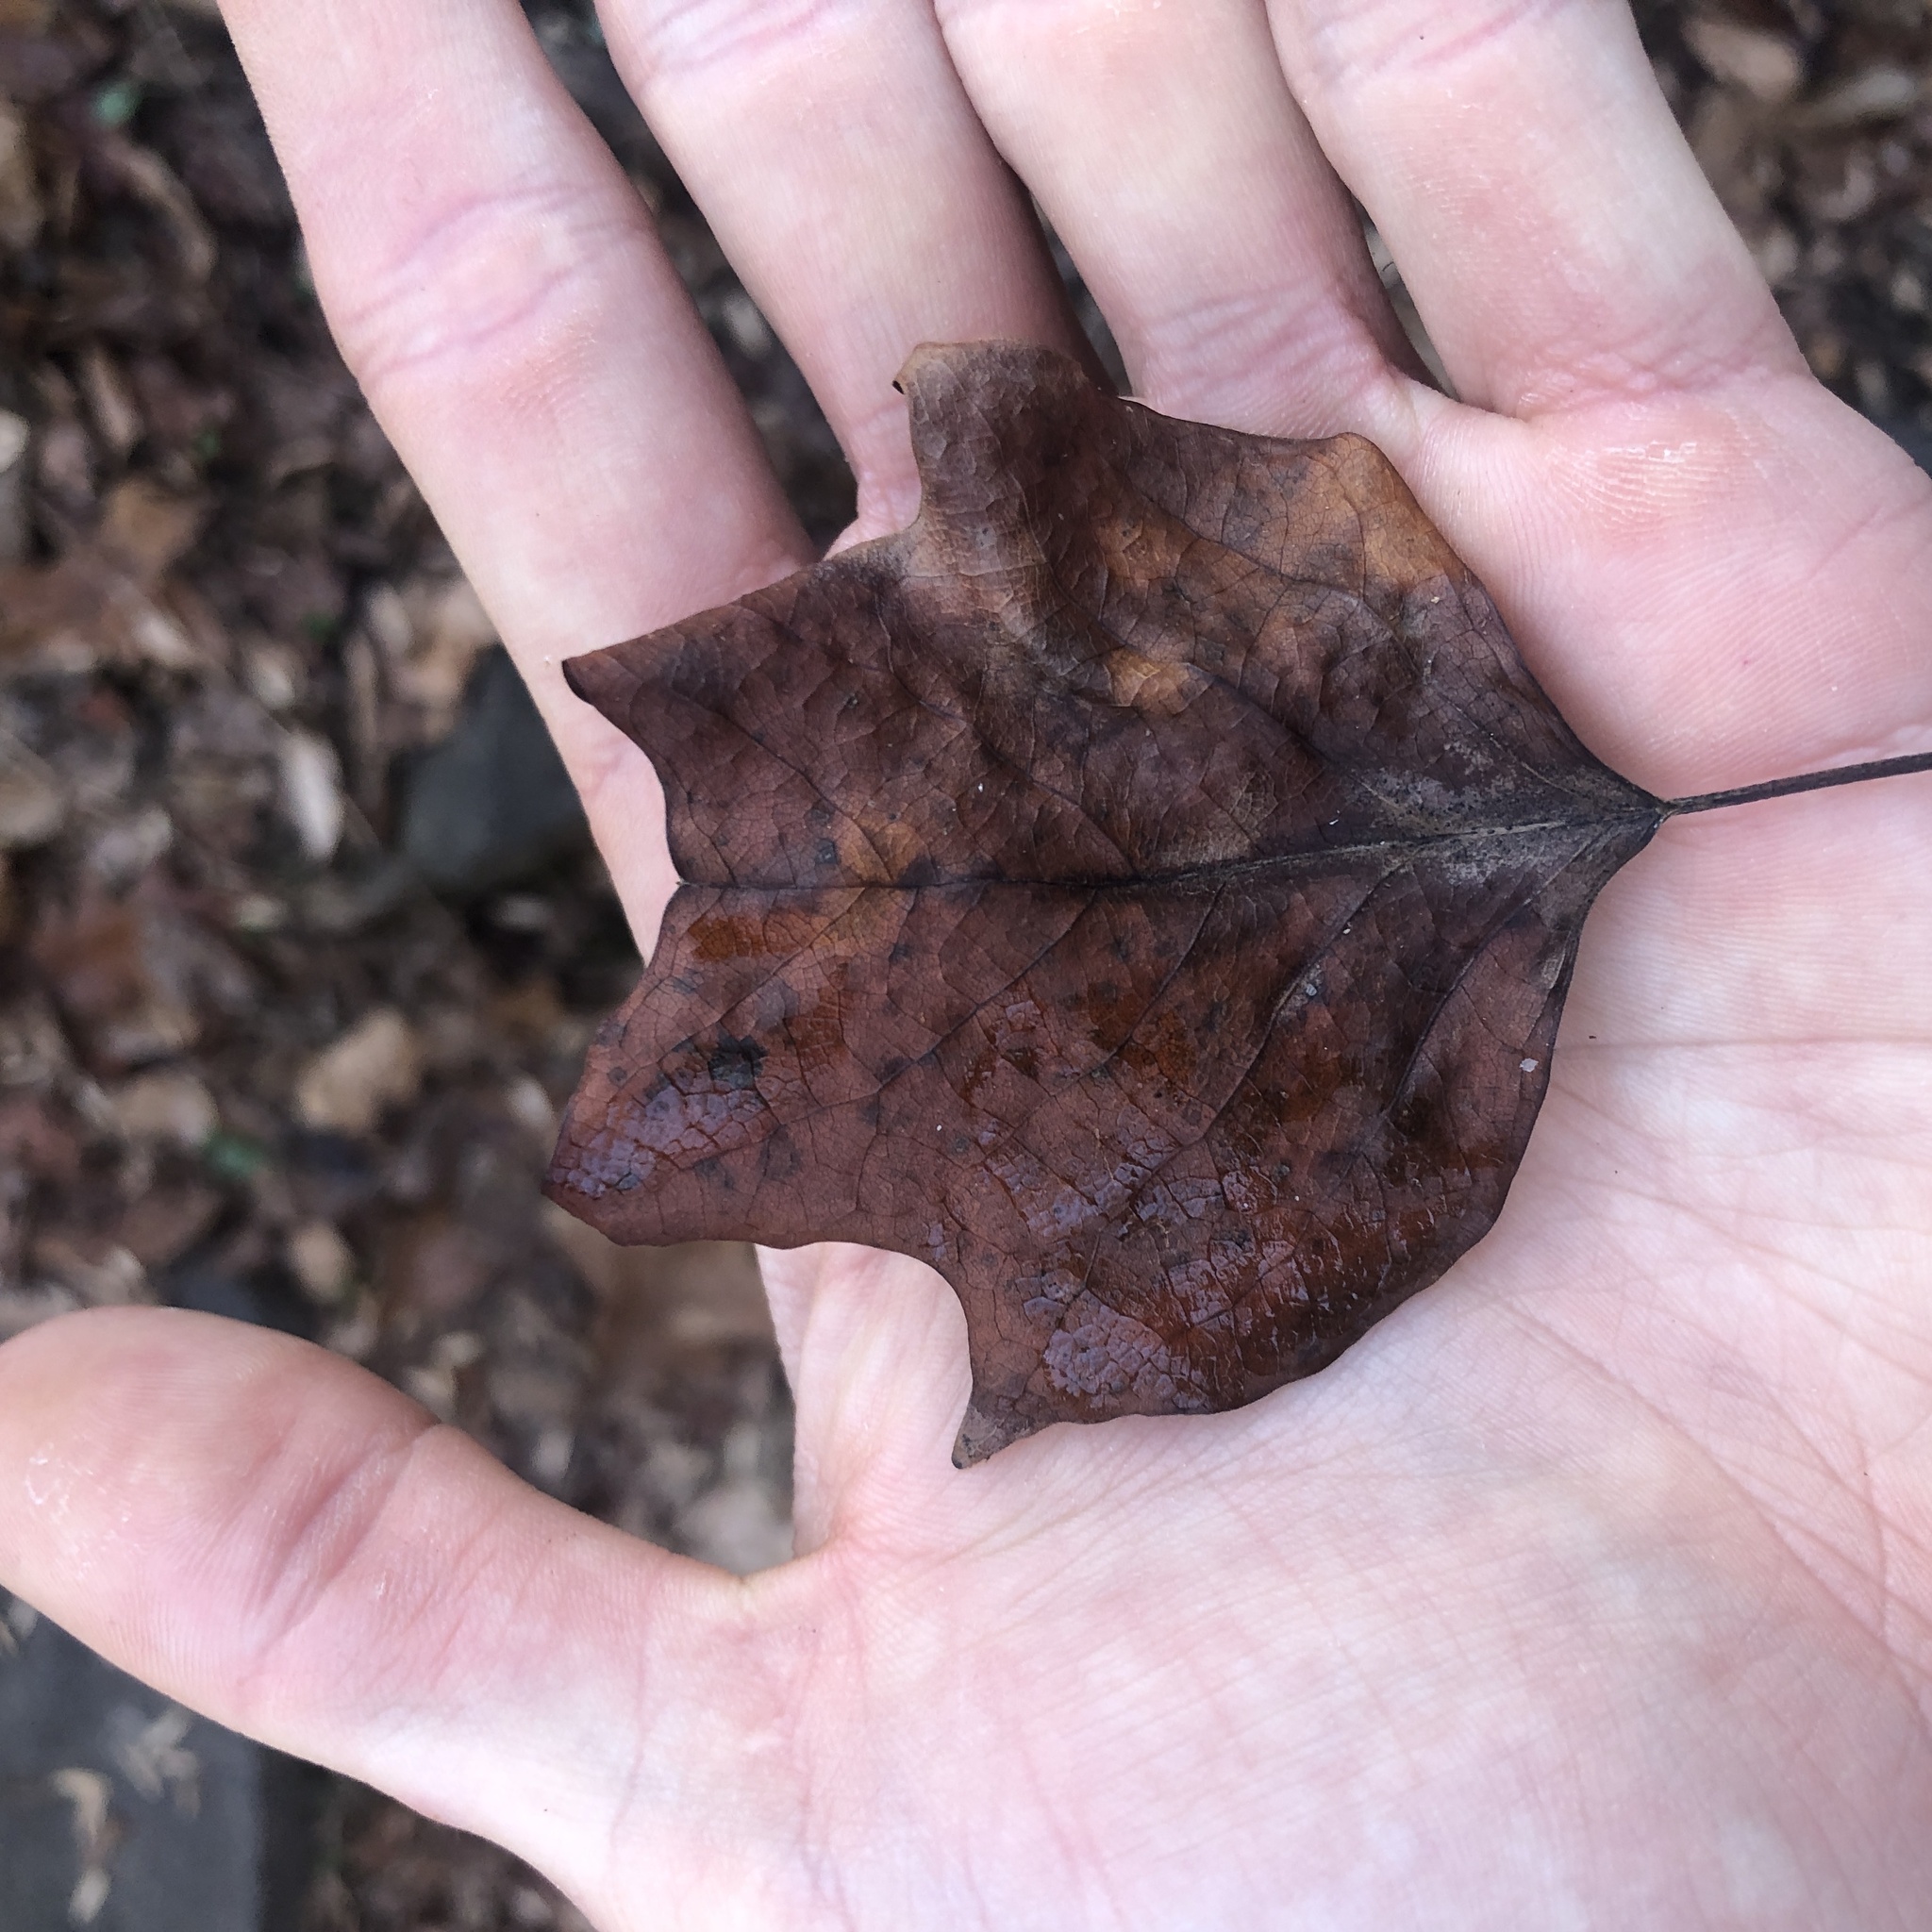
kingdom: Plantae
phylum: Tracheophyta
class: Magnoliopsida
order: Magnoliales
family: Magnoliaceae
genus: Liriodendron
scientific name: Liriodendron tulipifera
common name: Tulip tree
